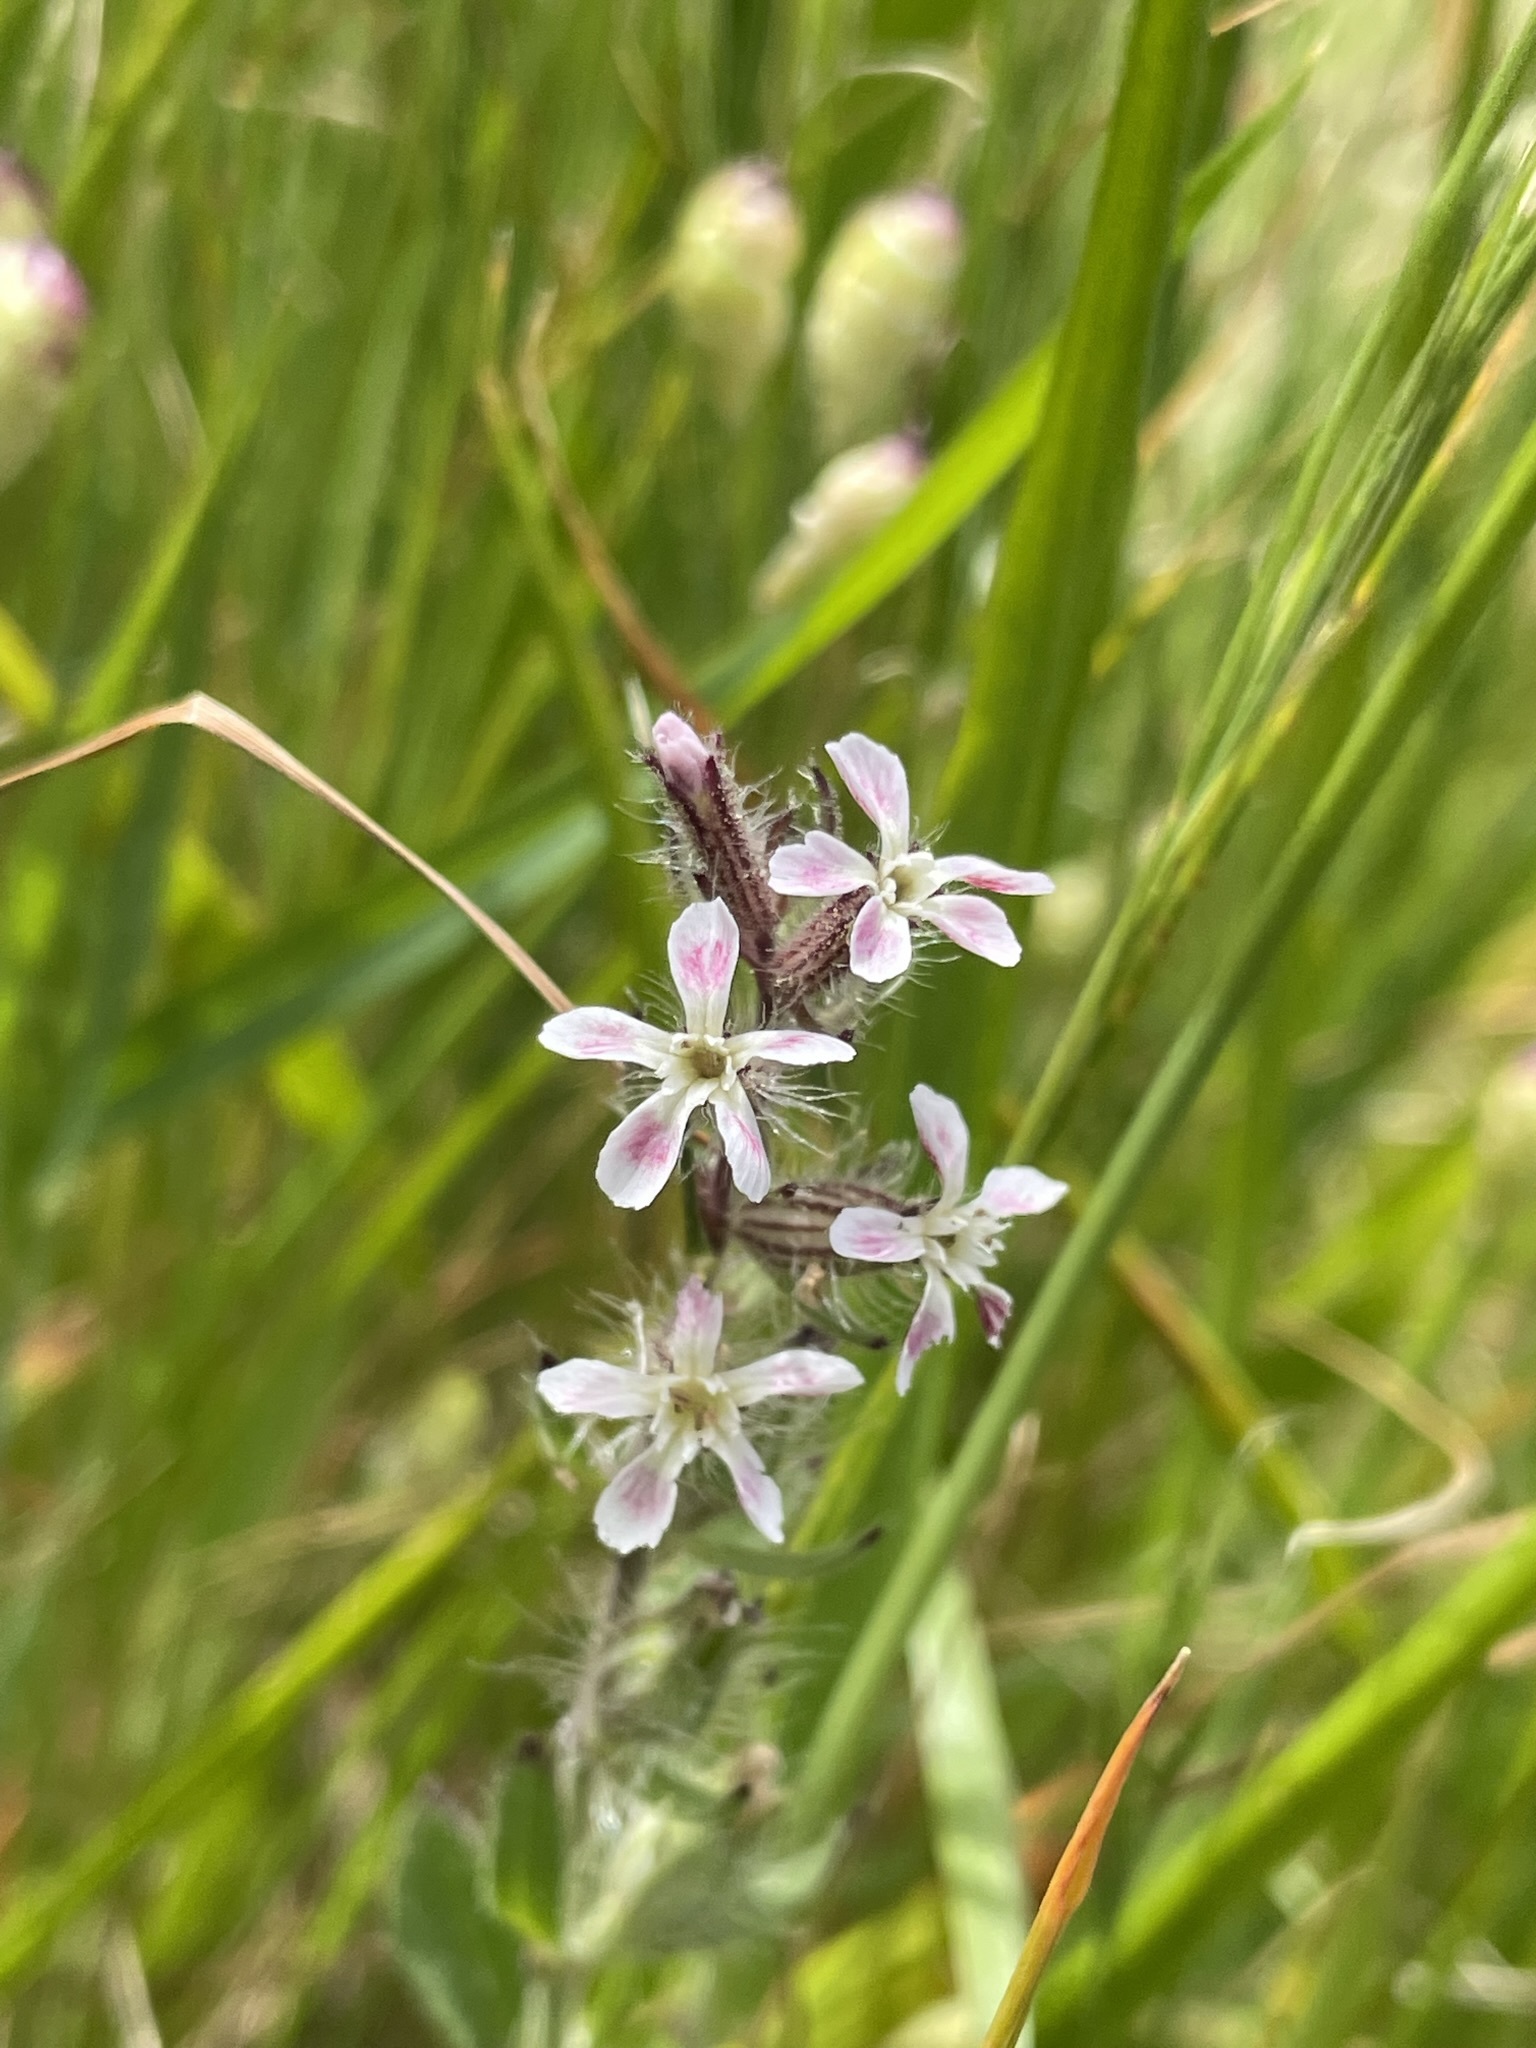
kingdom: Plantae
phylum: Tracheophyta
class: Magnoliopsida
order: Caryophyllales
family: Caryophyllaceae
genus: Silene
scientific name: Silene gallica
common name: Small-flowered catchfly
